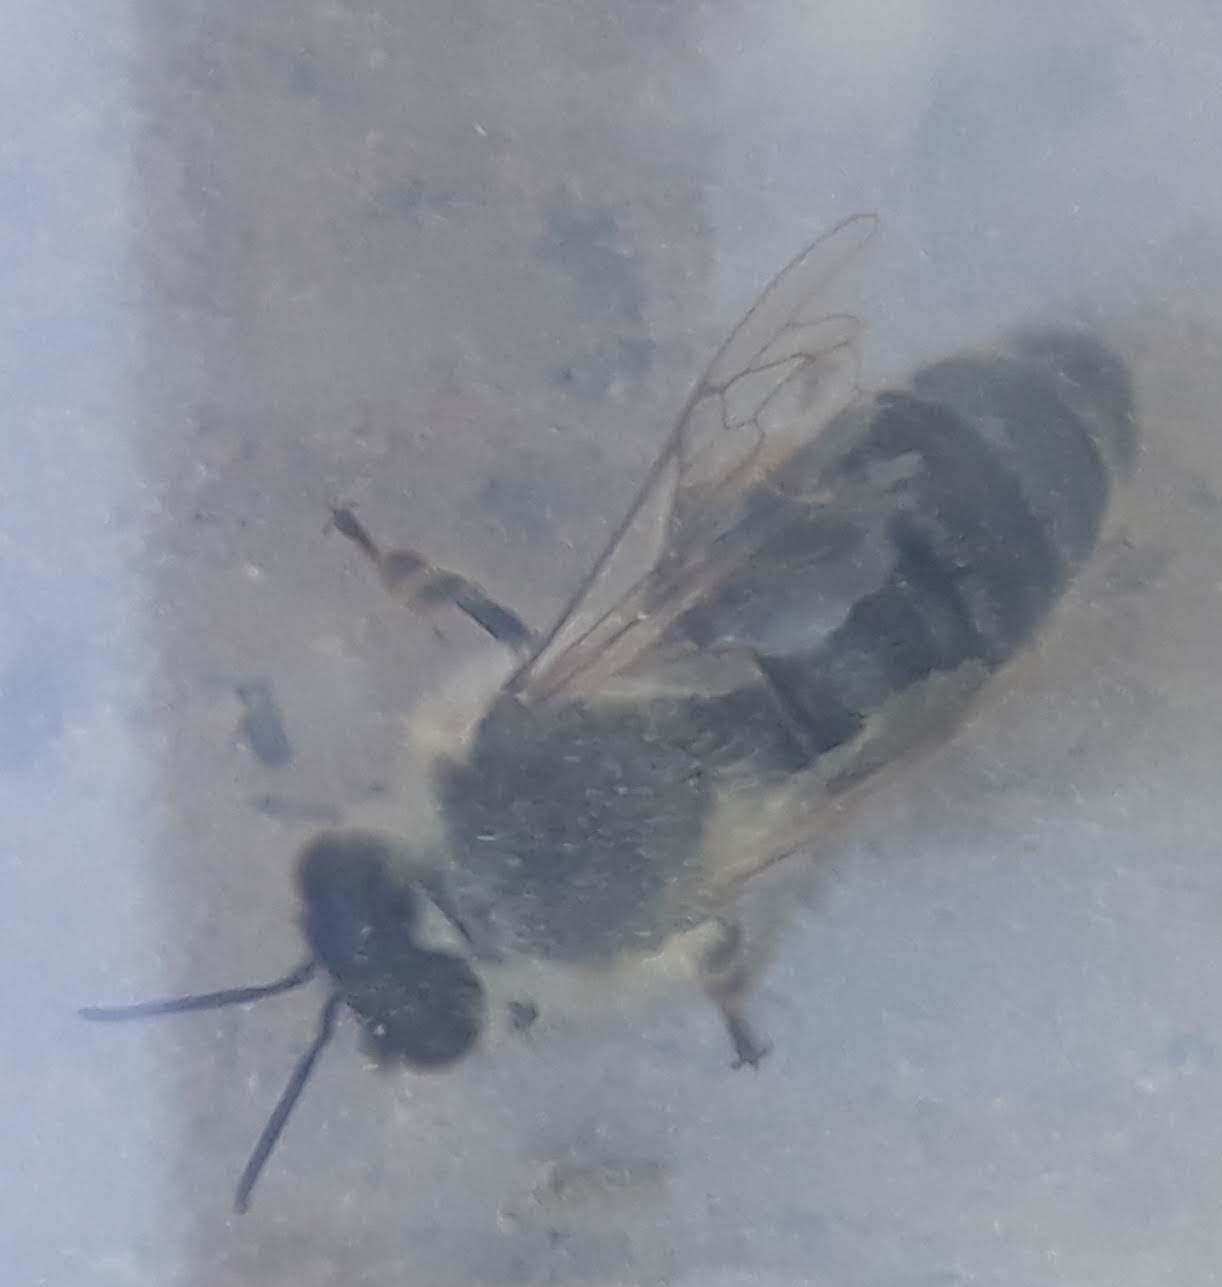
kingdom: Animalia
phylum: Arthropoda
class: Insecta
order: Hymenoptera
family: Apidae
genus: Apis
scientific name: Apis mellifera
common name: Honey bee
